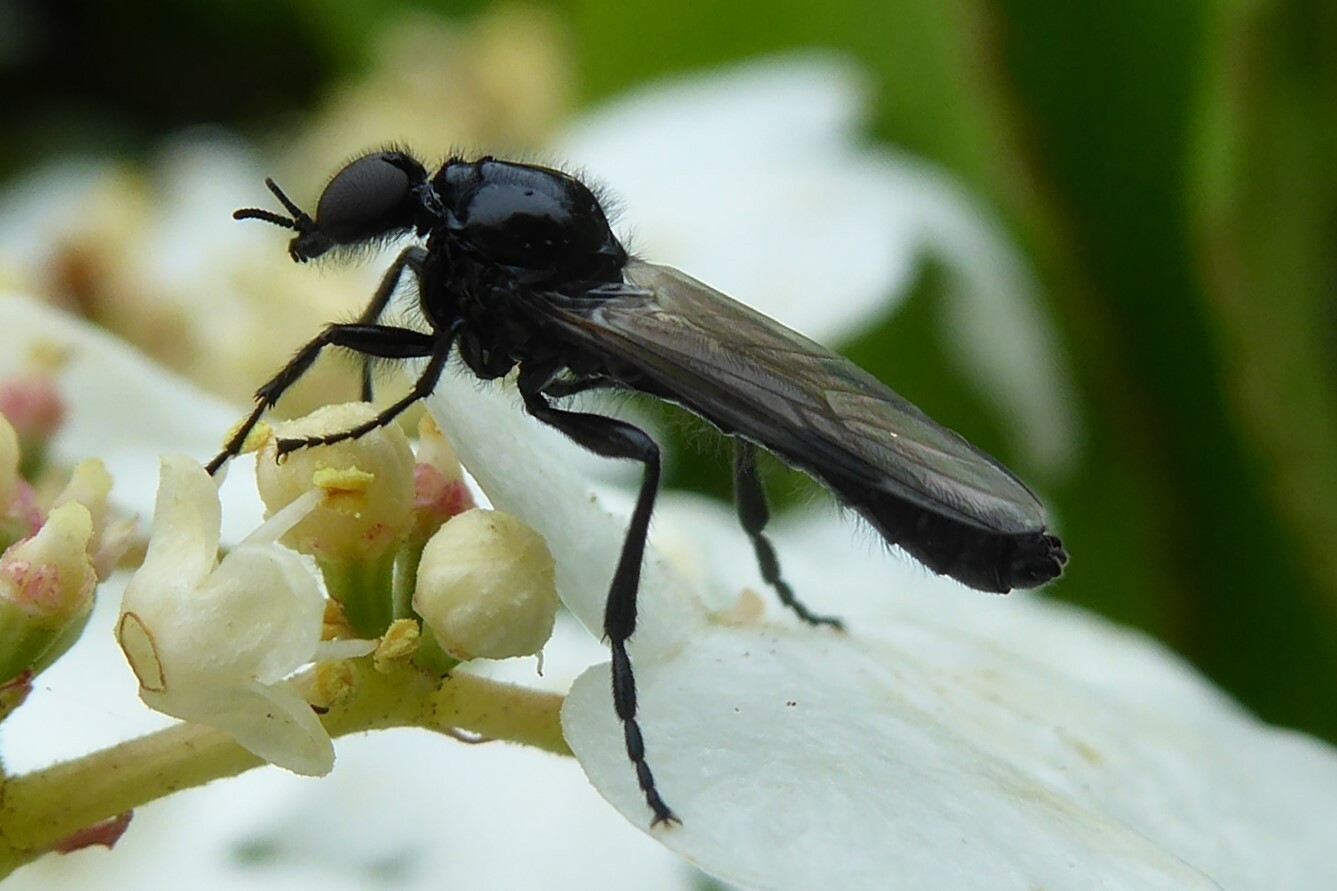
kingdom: Animalia
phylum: Arthropoda
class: Insecta
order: Diptera
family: Bibionidae
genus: Dilophus
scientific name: Dilophus nigrostigma
